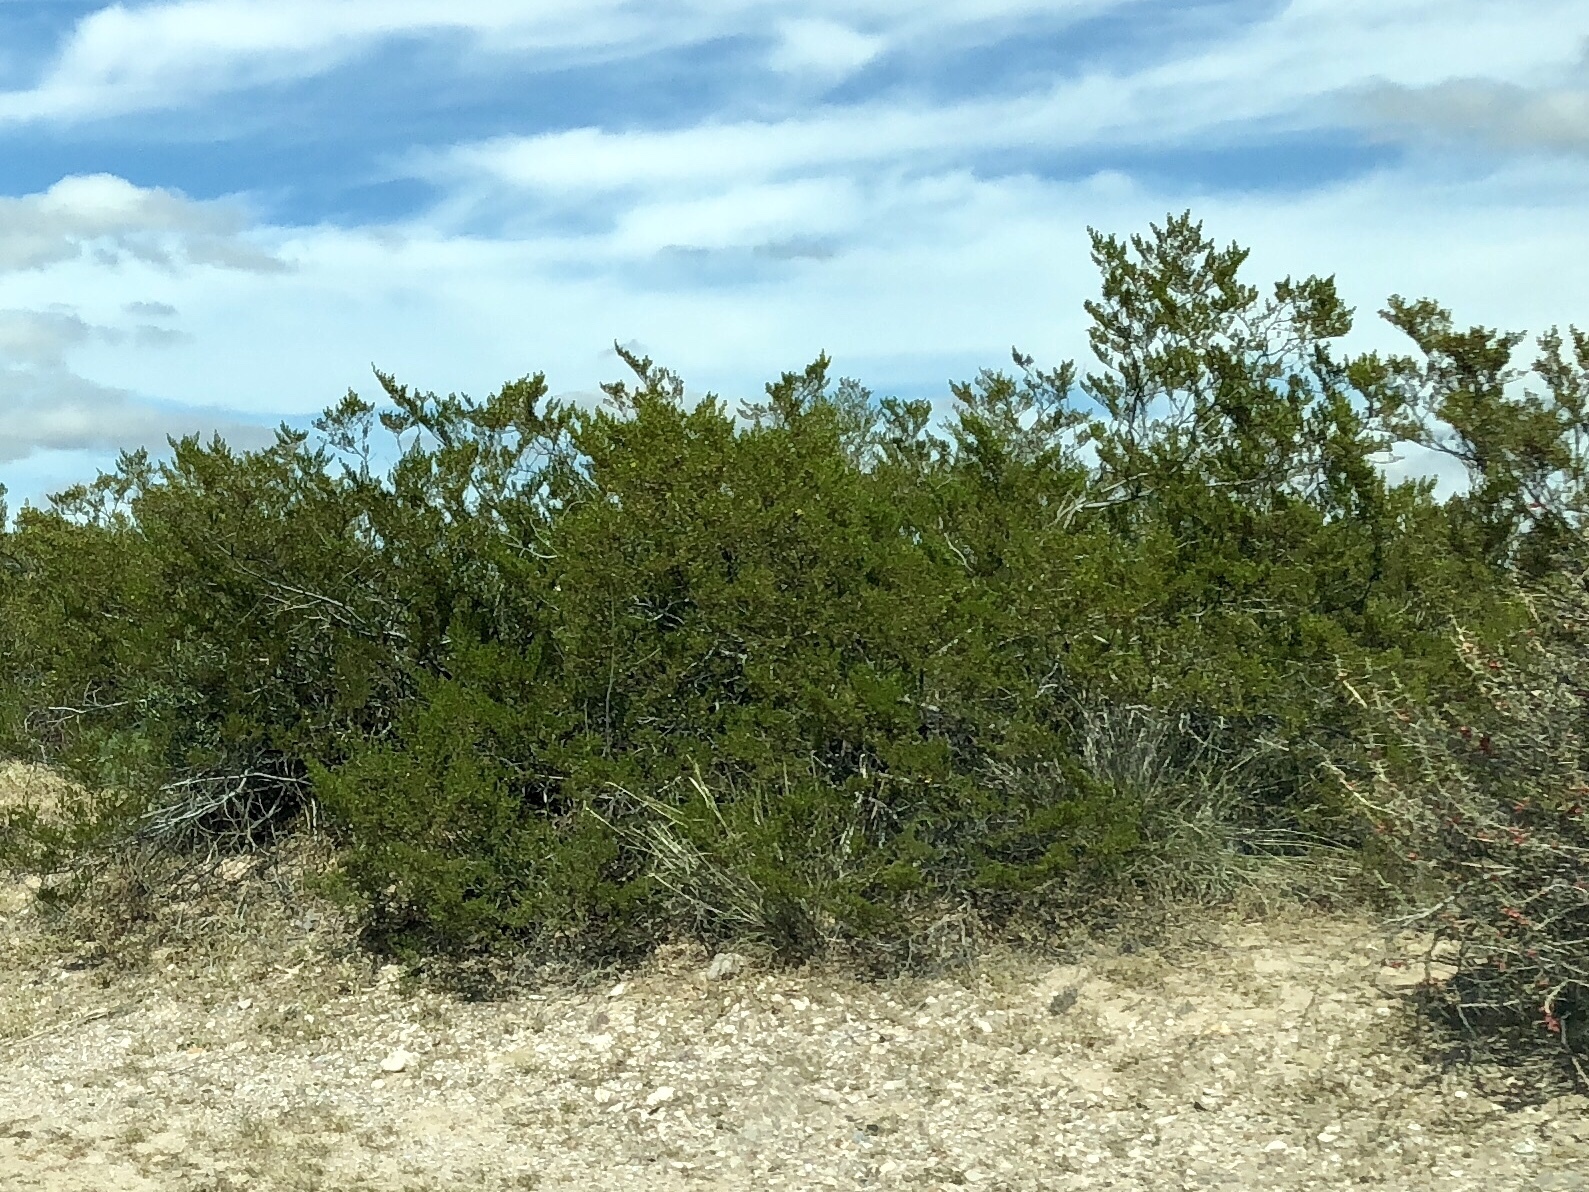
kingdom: Plantae
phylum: Tracheophyta
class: Magnoliopsida
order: Zygophyllales
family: Zygophyllaceae
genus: Larrea
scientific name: Larrea tridentata
